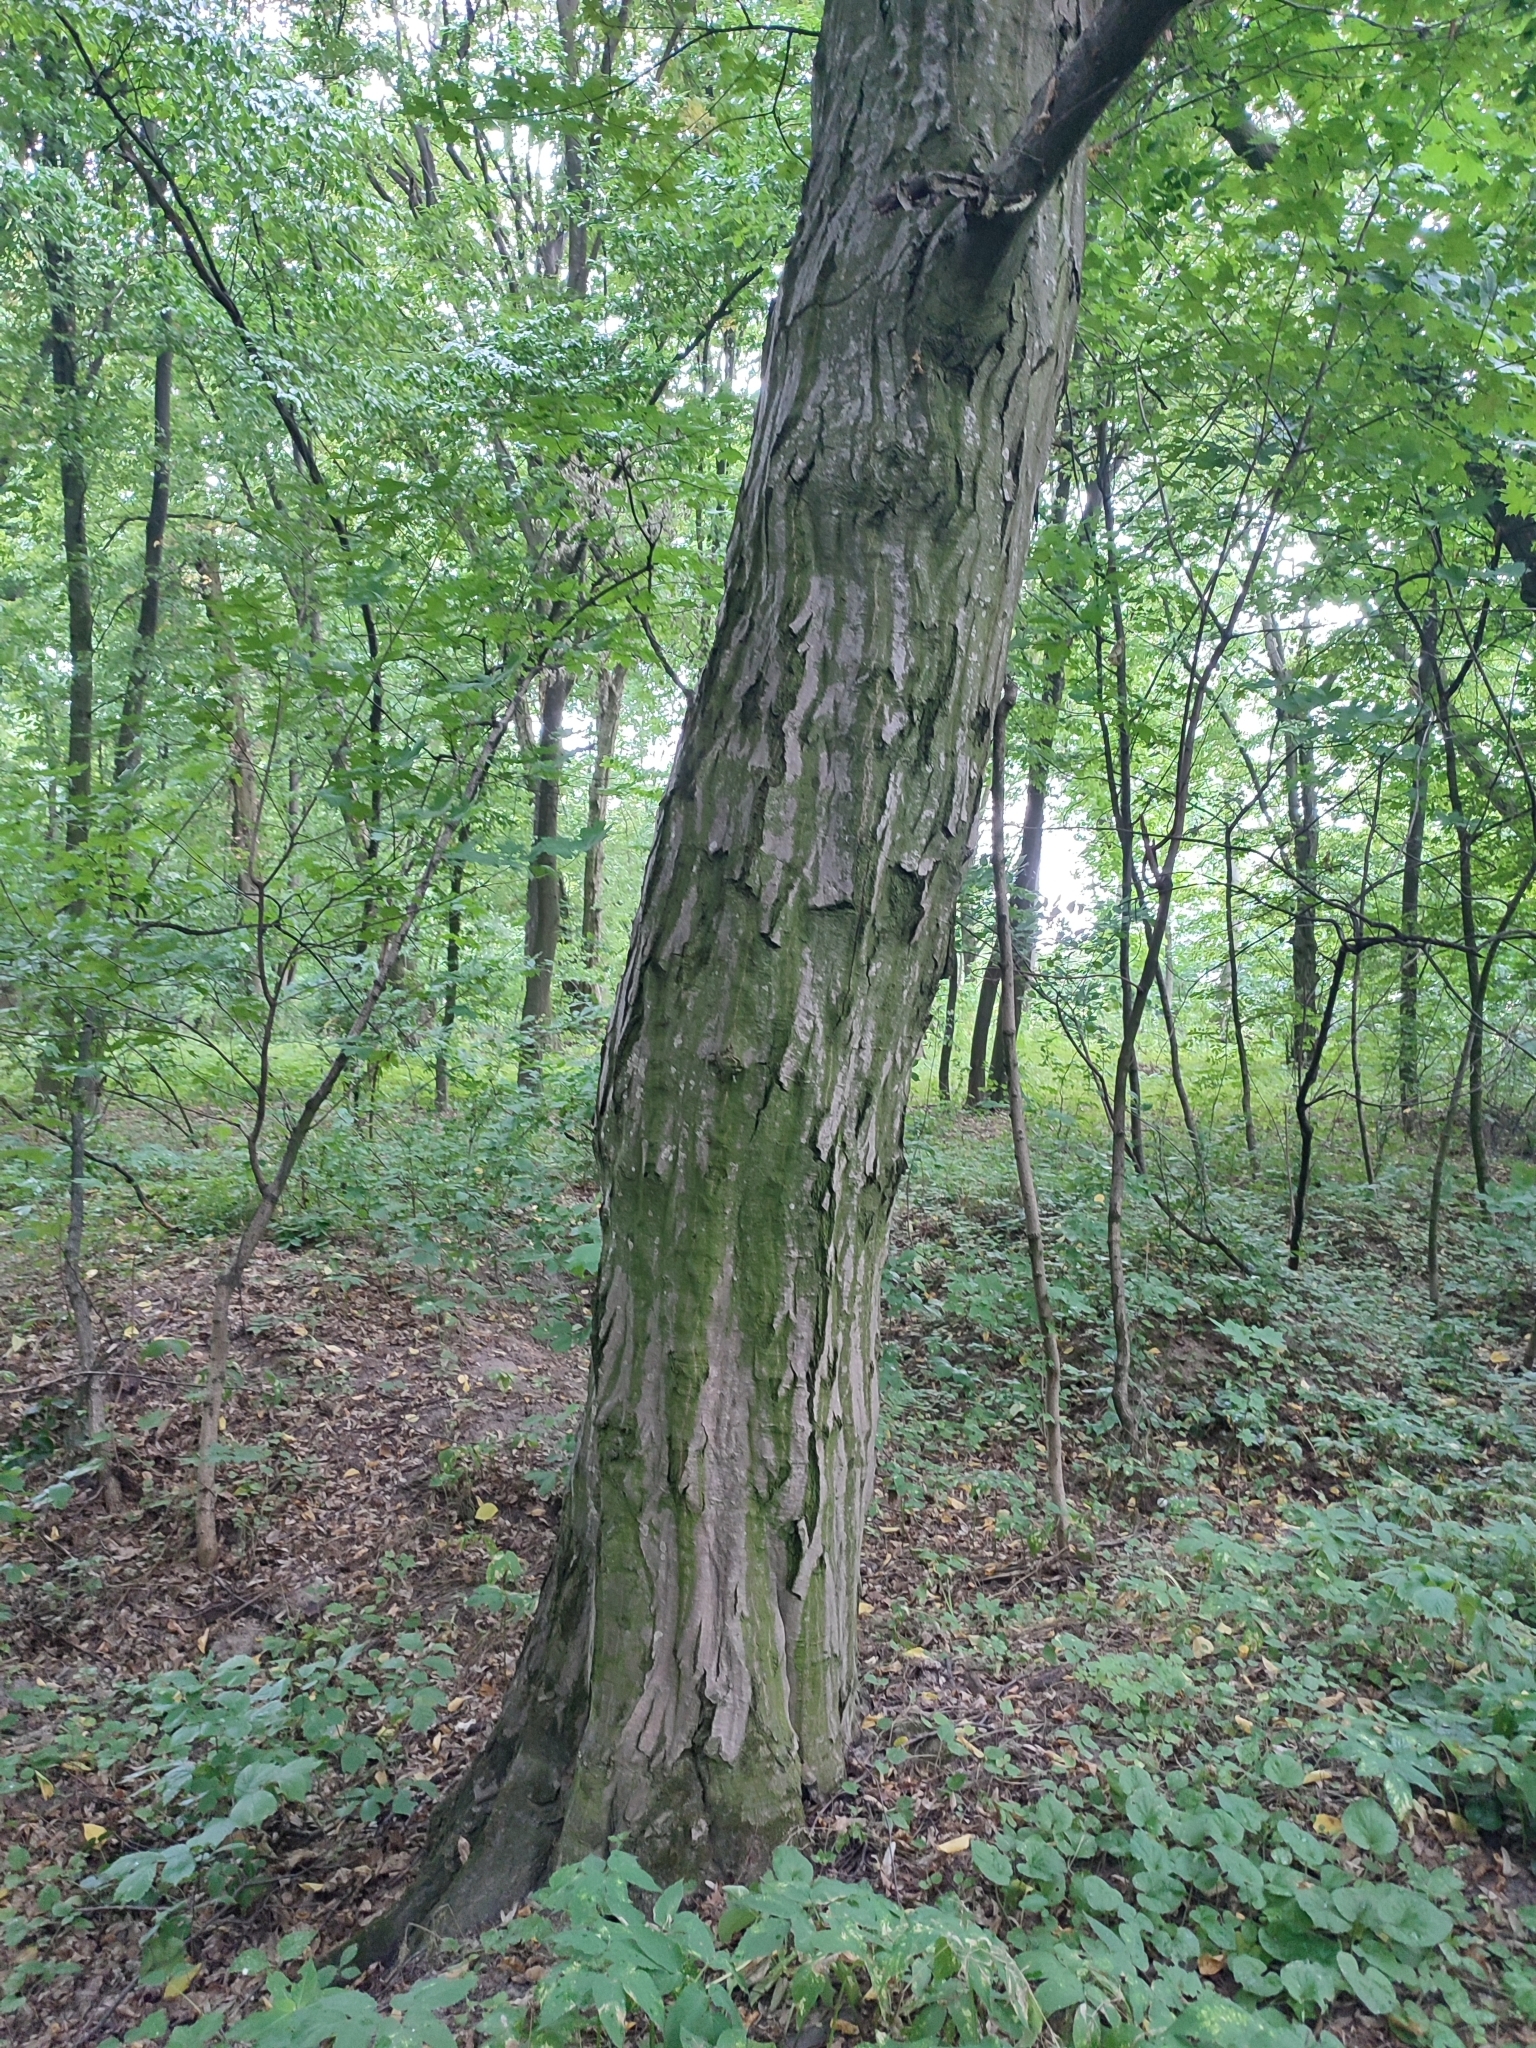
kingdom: Plantae
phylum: Tracheophyta
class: Magnoliopsida
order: Fagales
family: Betulaceae
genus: Carpinus
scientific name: Carpinus betulus
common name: Hornbeam
